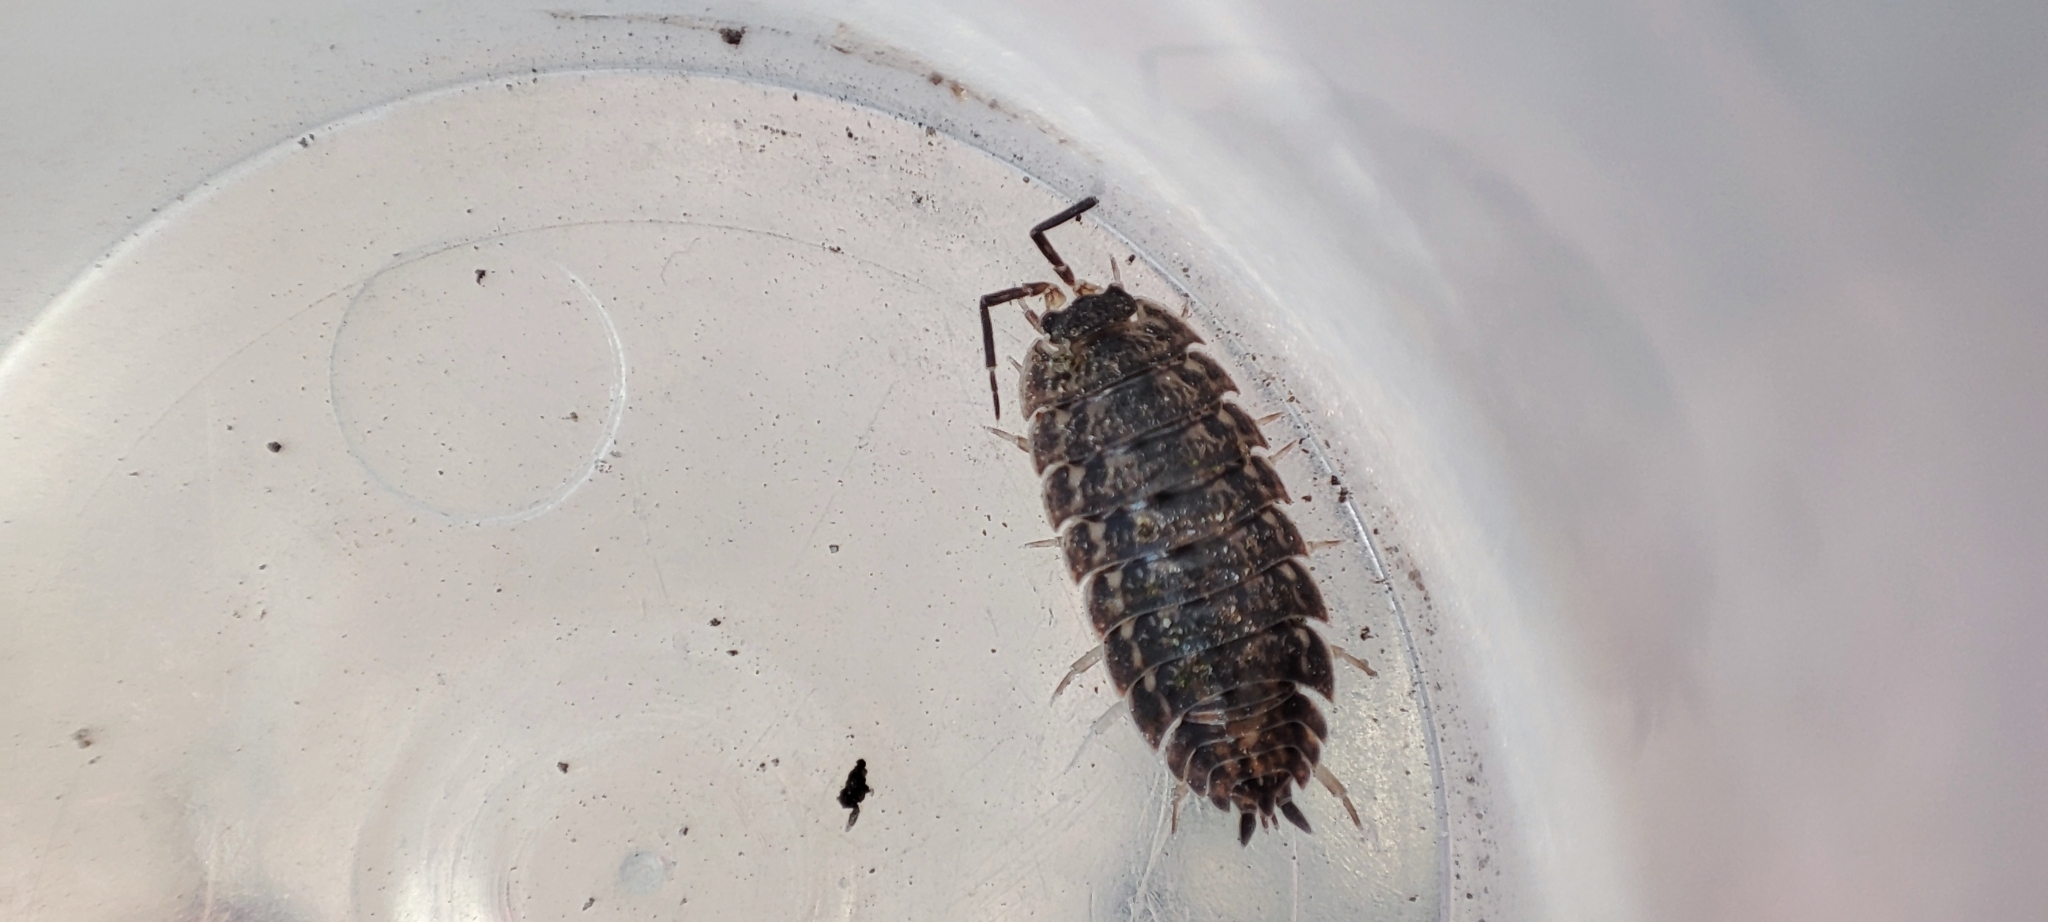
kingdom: Animalia
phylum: Arthropoda
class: Malacostraca
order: Isopoda
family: Trachelipodidae
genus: Trachelipus
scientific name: Trachelipus rathkii
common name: Isopod
